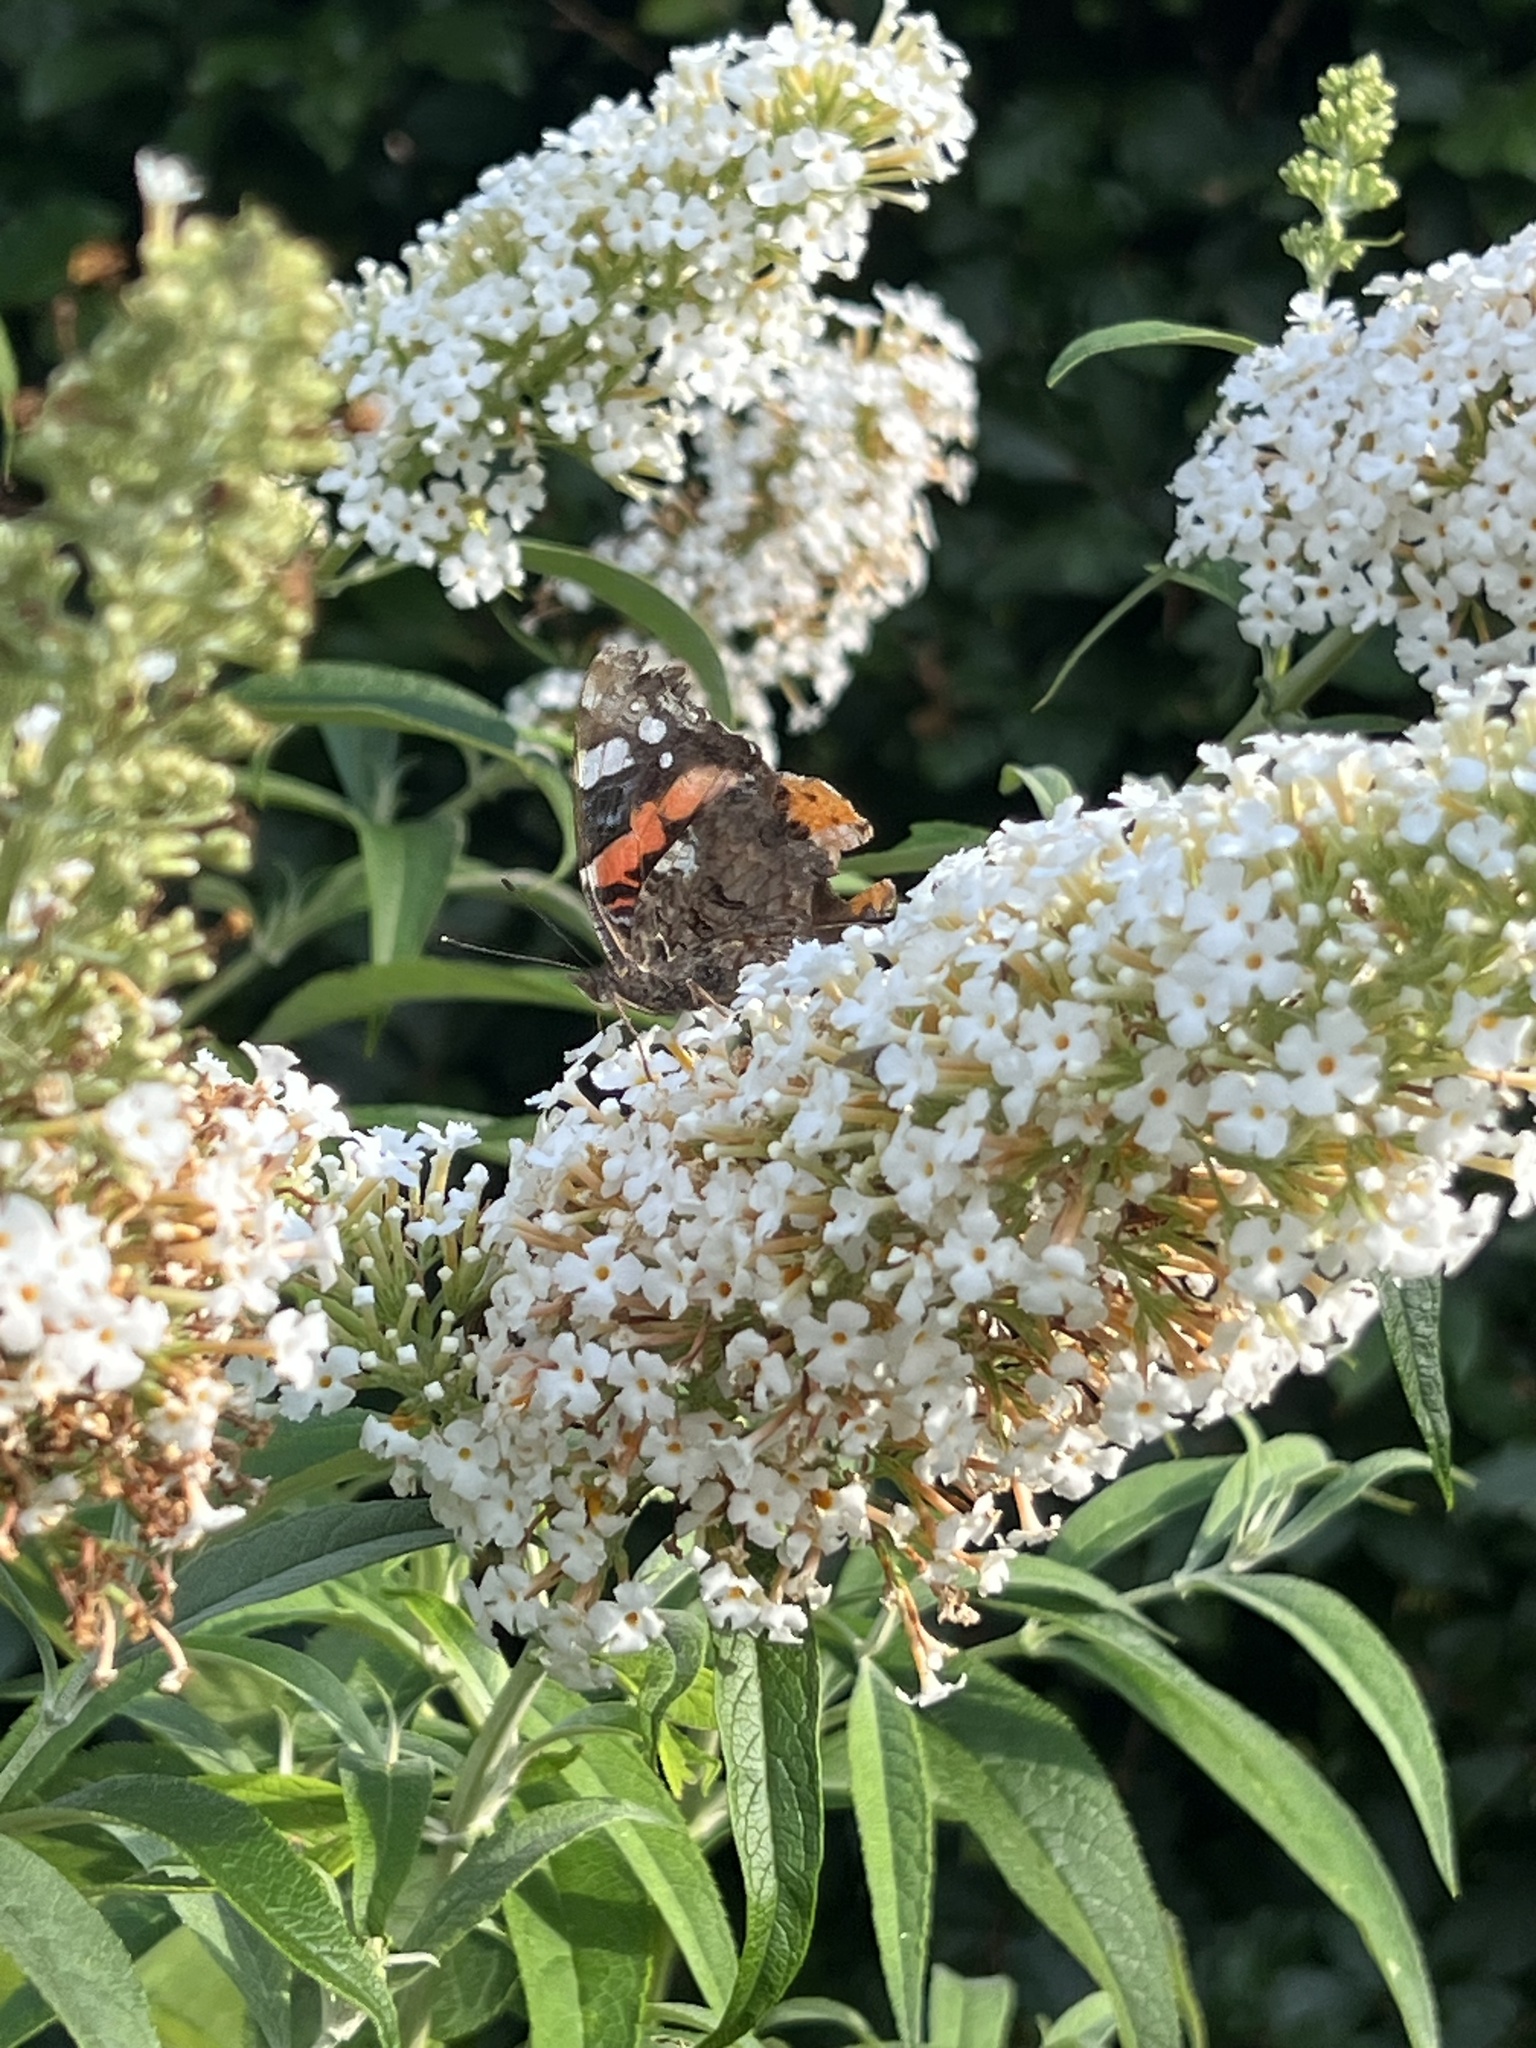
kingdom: Animalia
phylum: Arthropoda
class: Insecta
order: Lepidoptera
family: Nymphalidae
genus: Vanessa
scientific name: Vanessa atalanta
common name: Red admiral
